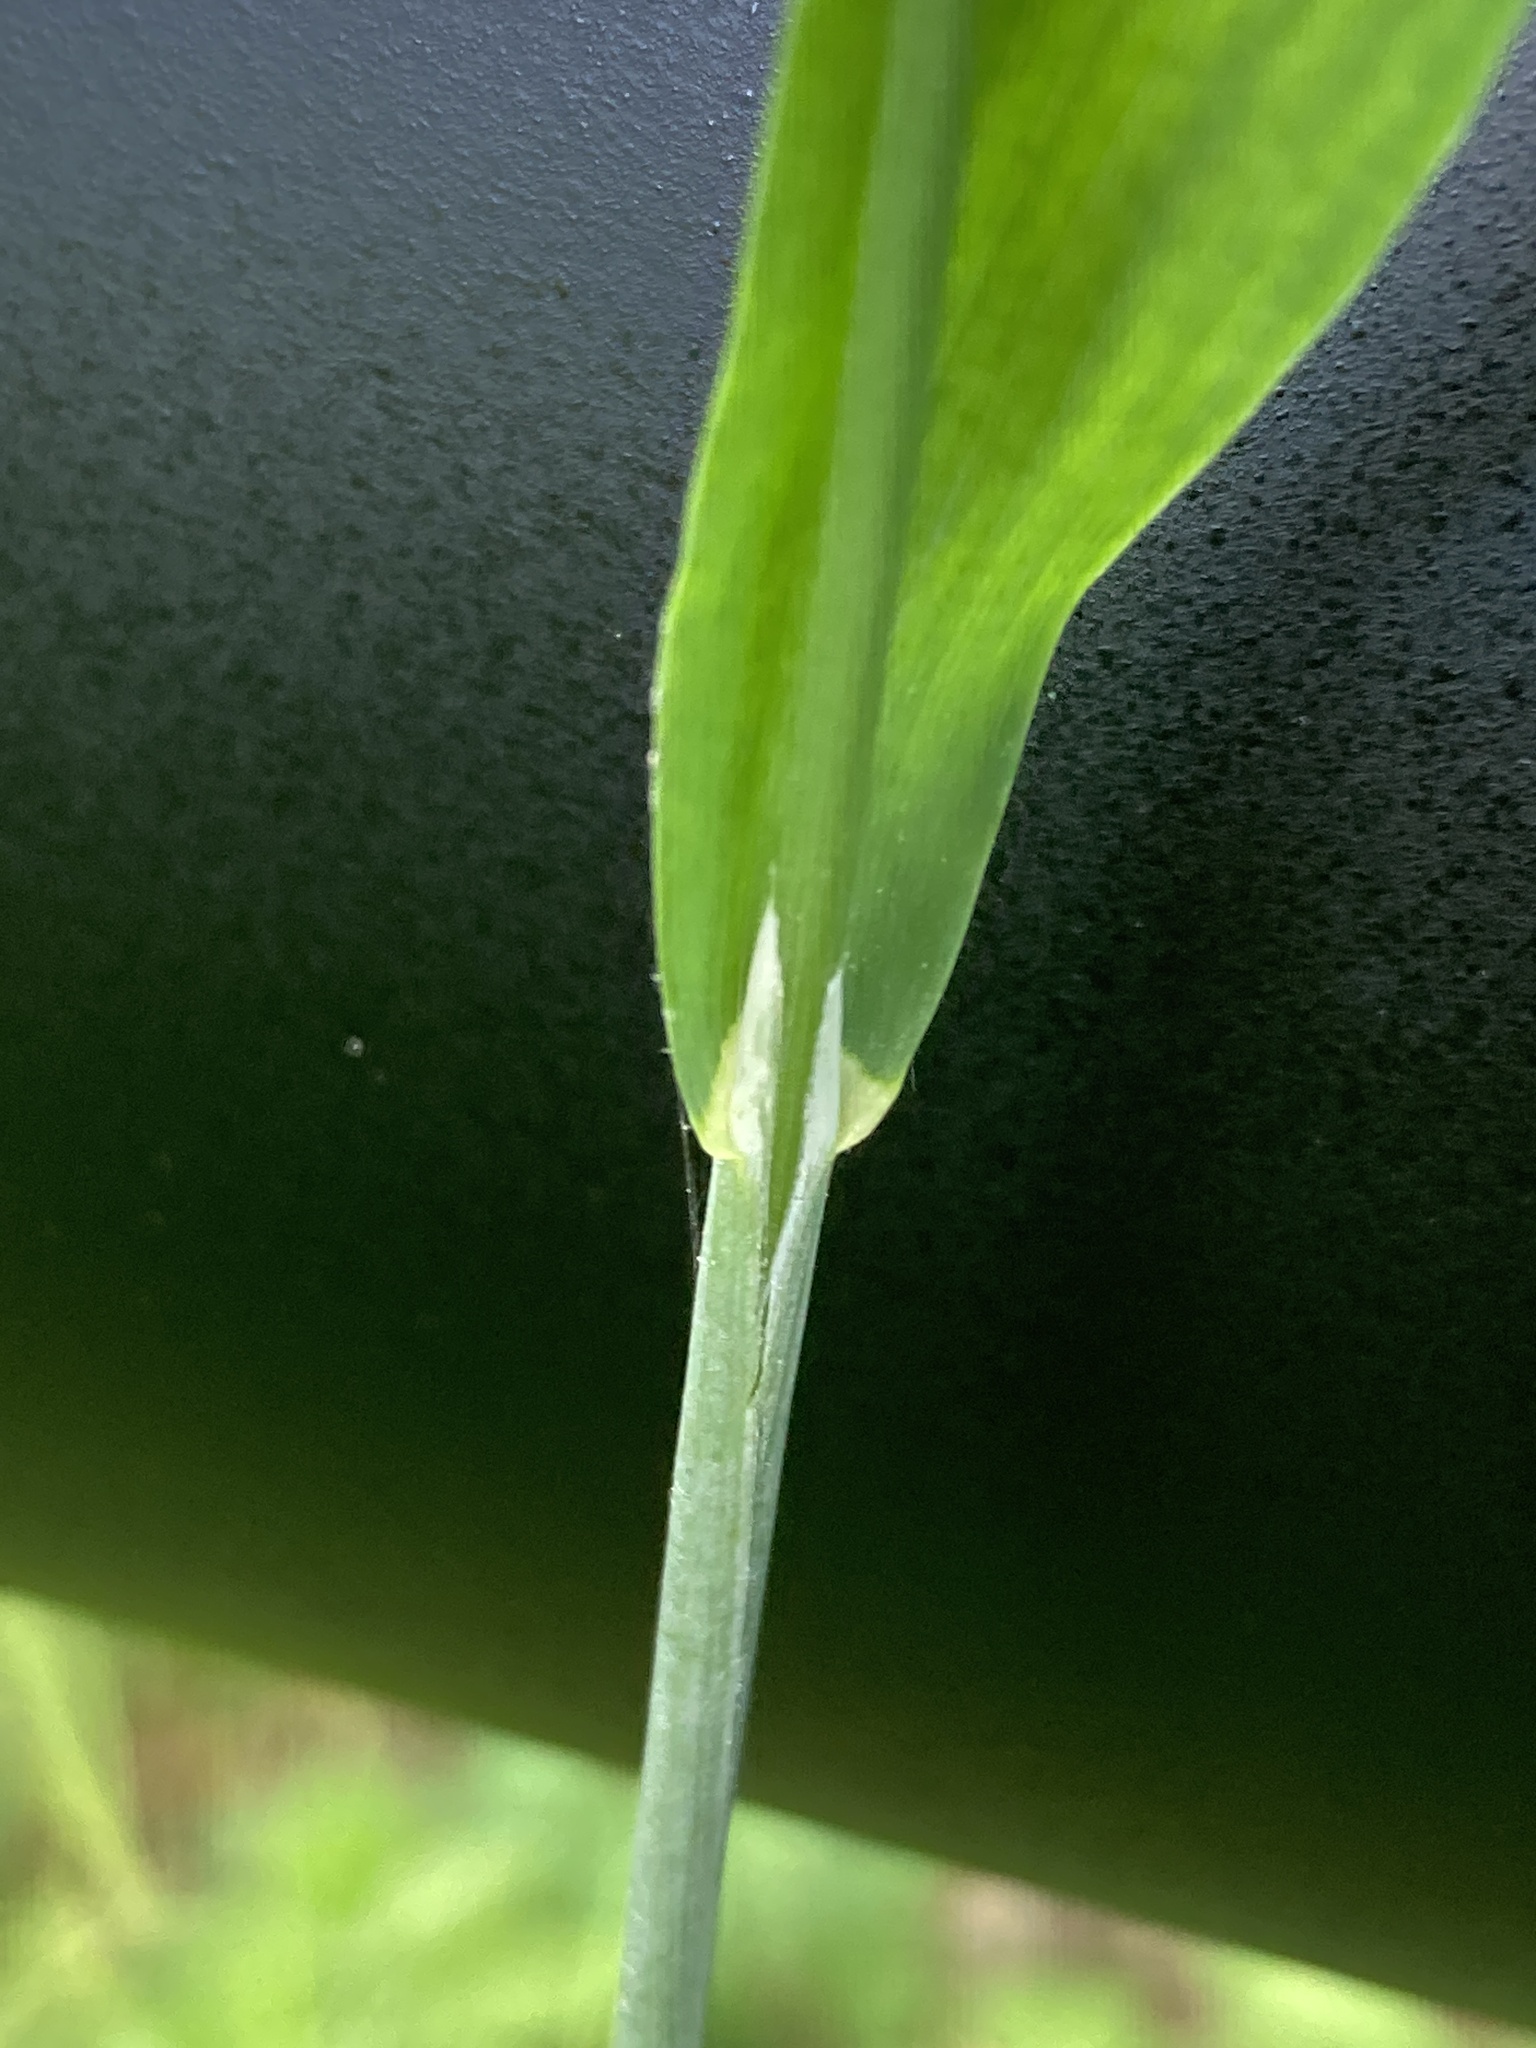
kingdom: Plantae
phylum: Tracheophyta
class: Liliopsida
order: Poales
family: Poaceae
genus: Milium
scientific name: Milium effusum
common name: Wood millet
